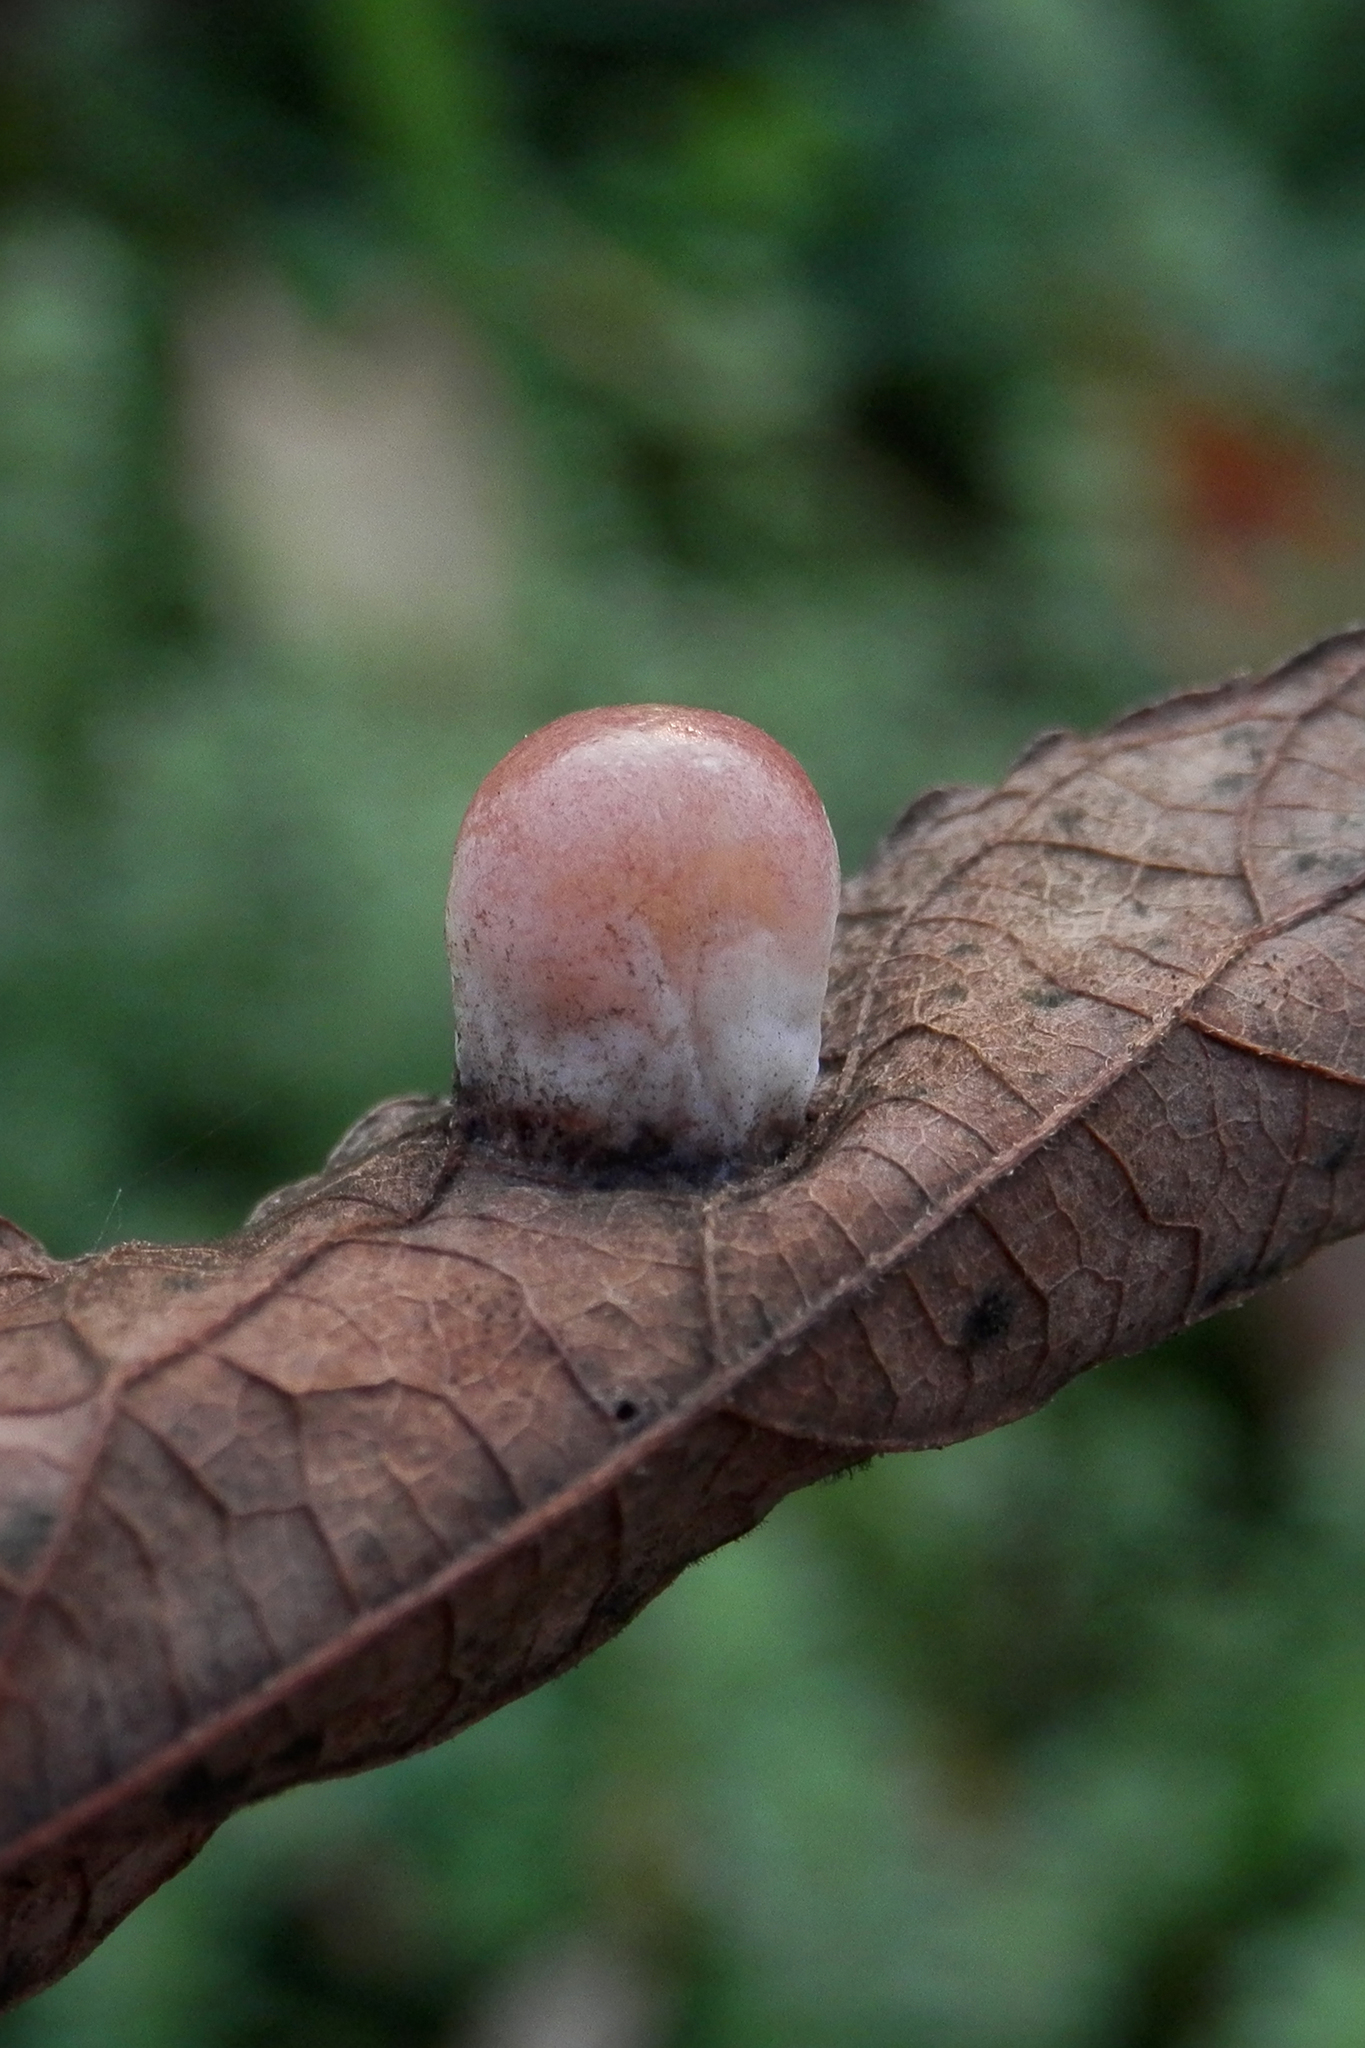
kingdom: Animalia
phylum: Arthropoda
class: Insecta
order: Hemiptera
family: Aphalaridae
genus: Pachypsylla
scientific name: Pachypsylla celtidismamma
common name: Hackberry nipplegall psyllid
